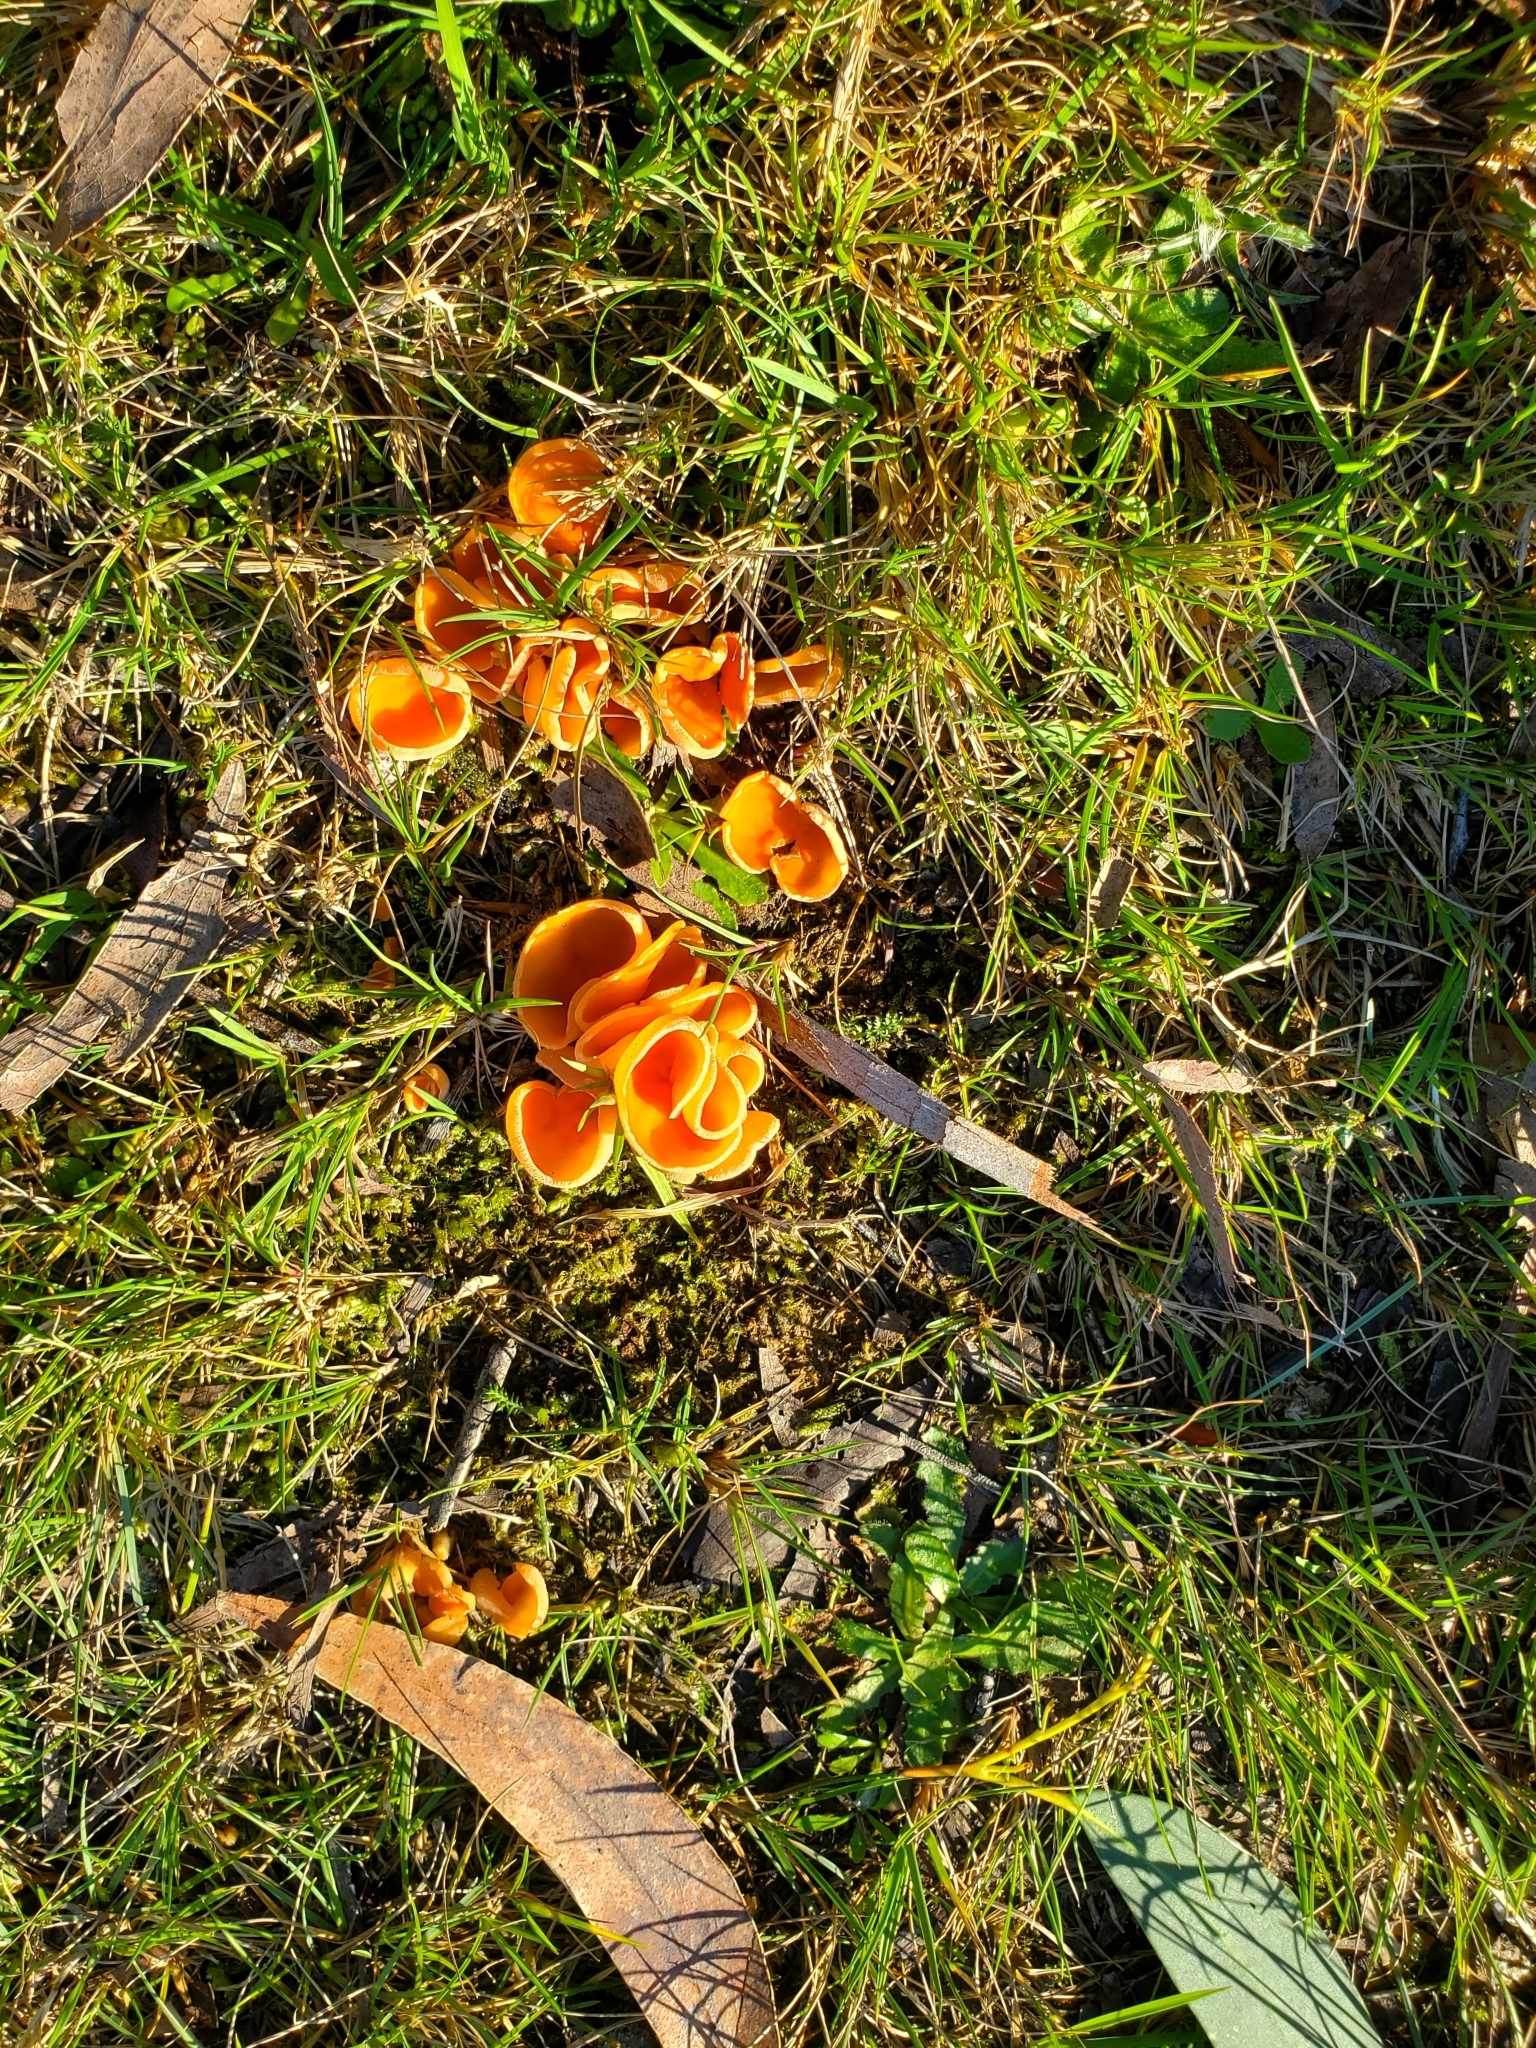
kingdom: Fungi
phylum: Ascomycota
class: Pezizomycetes
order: Pezizales
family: Pyronemataceae
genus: Aleuria
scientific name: Aleuria aurantia
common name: Orange peel fungus
